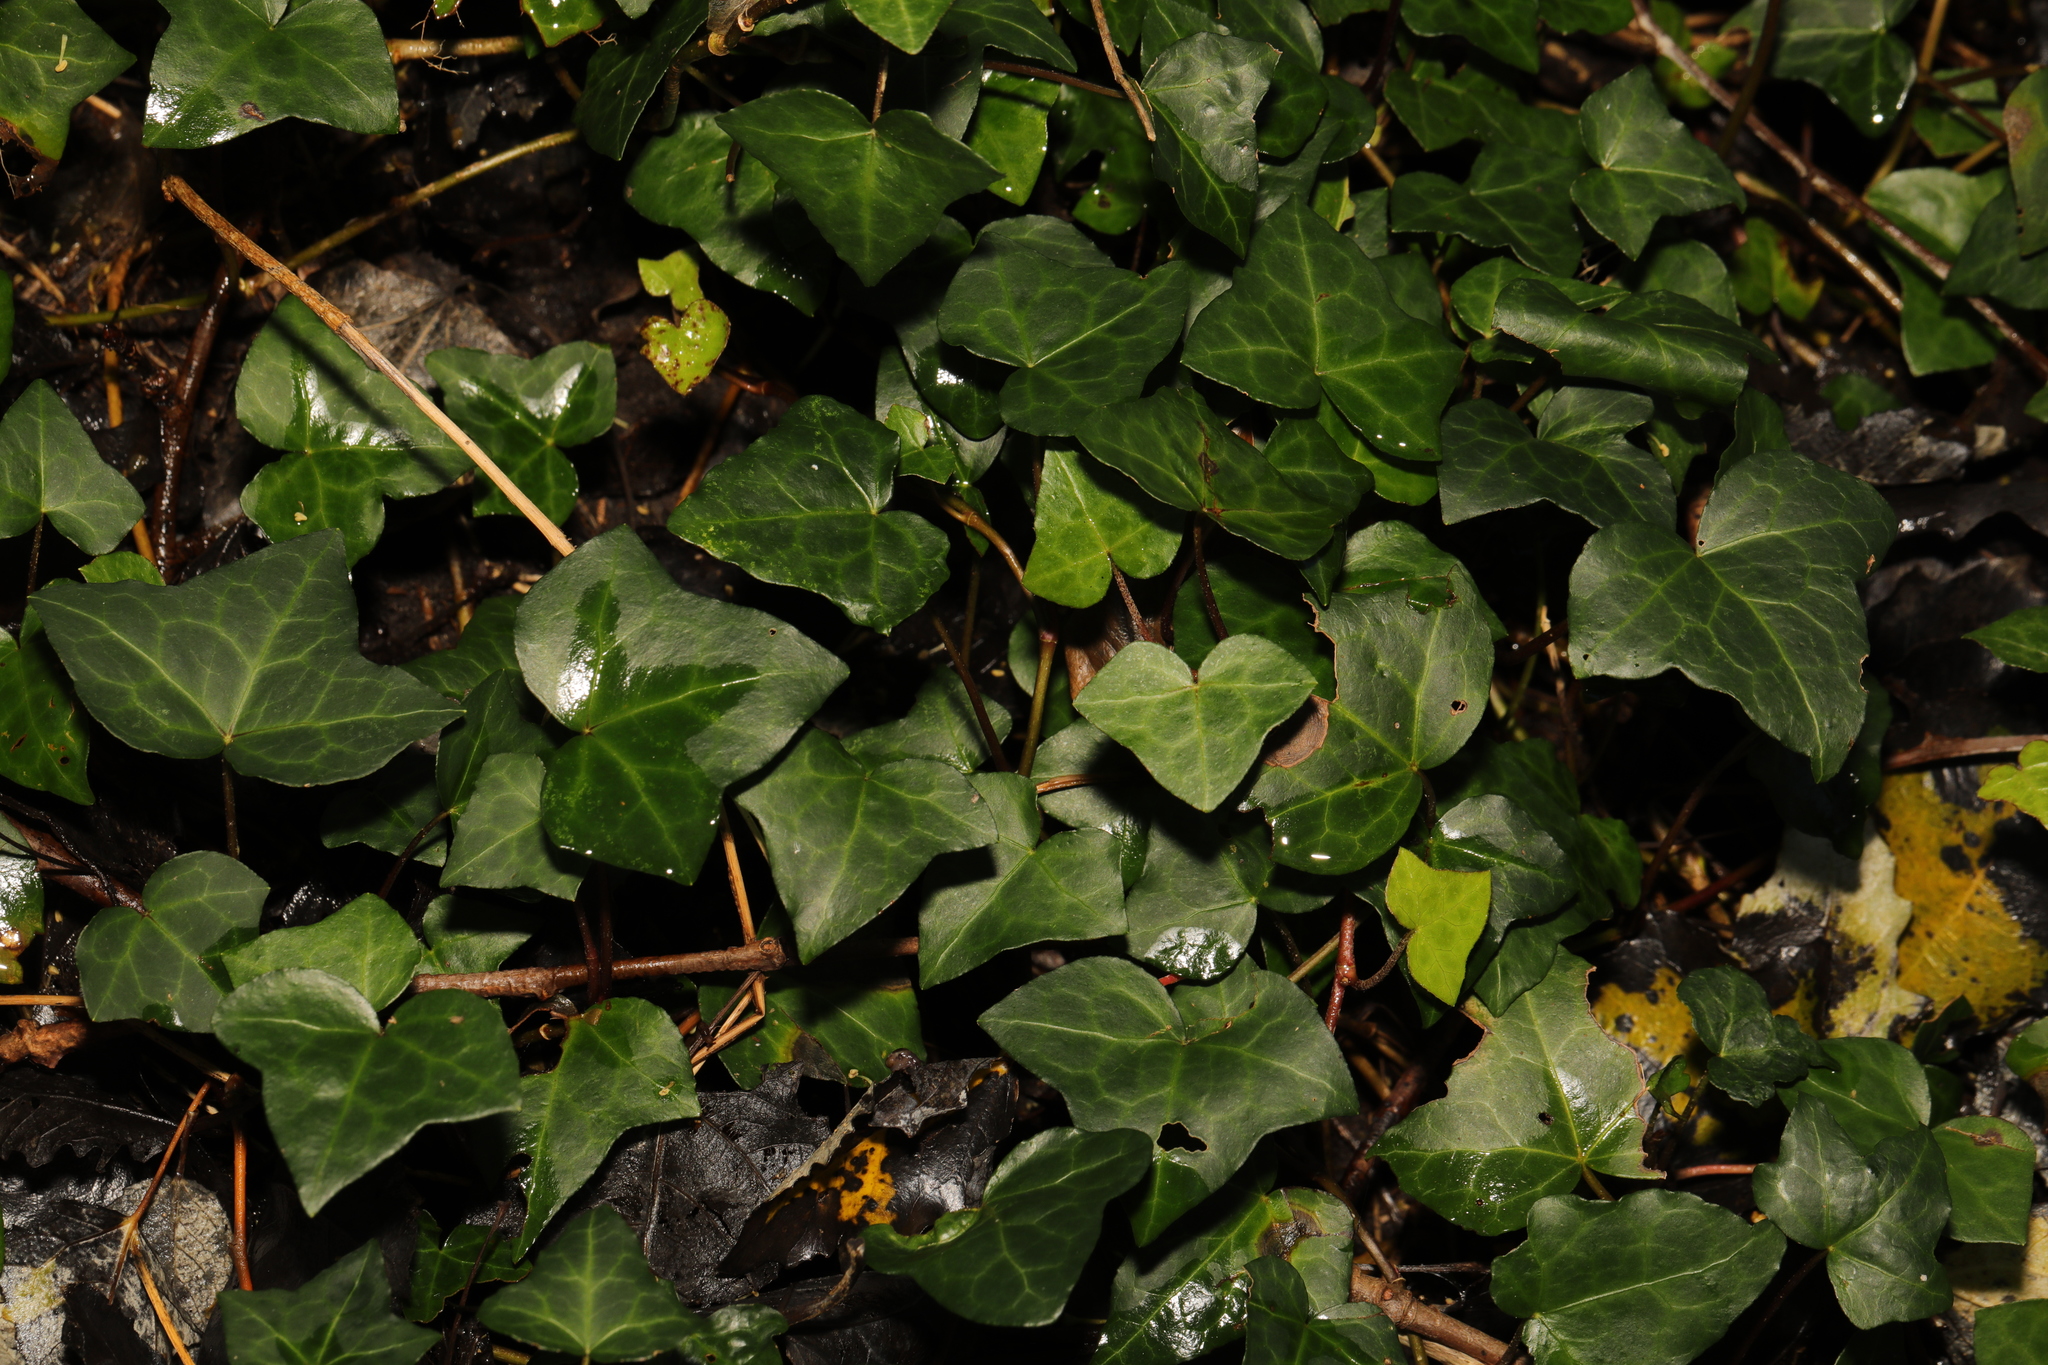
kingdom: Plantae
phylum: Tracheophyta
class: Magnoliopsida
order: Apiales
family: Araliaceae
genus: Hedera
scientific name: Hedera helix
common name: Ivy
